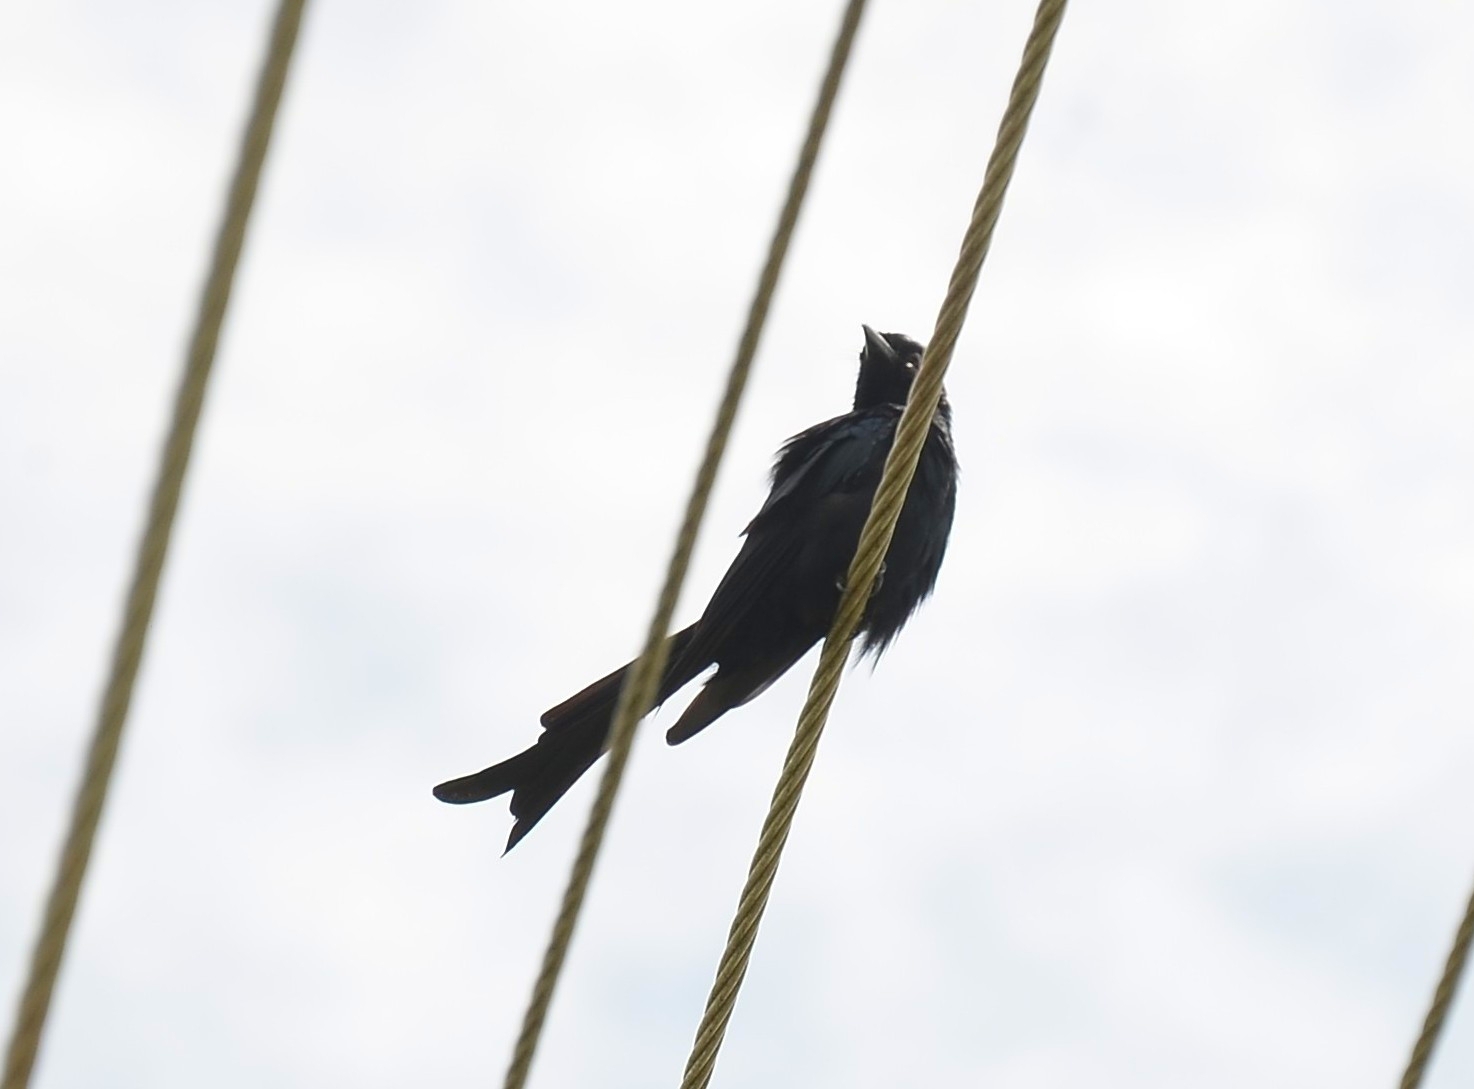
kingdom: Animalia
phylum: Chordata
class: Aves
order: Passeriformes
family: Dicruridae
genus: Dicrurus
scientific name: Dicrurus macrocercus
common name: Black drongo
